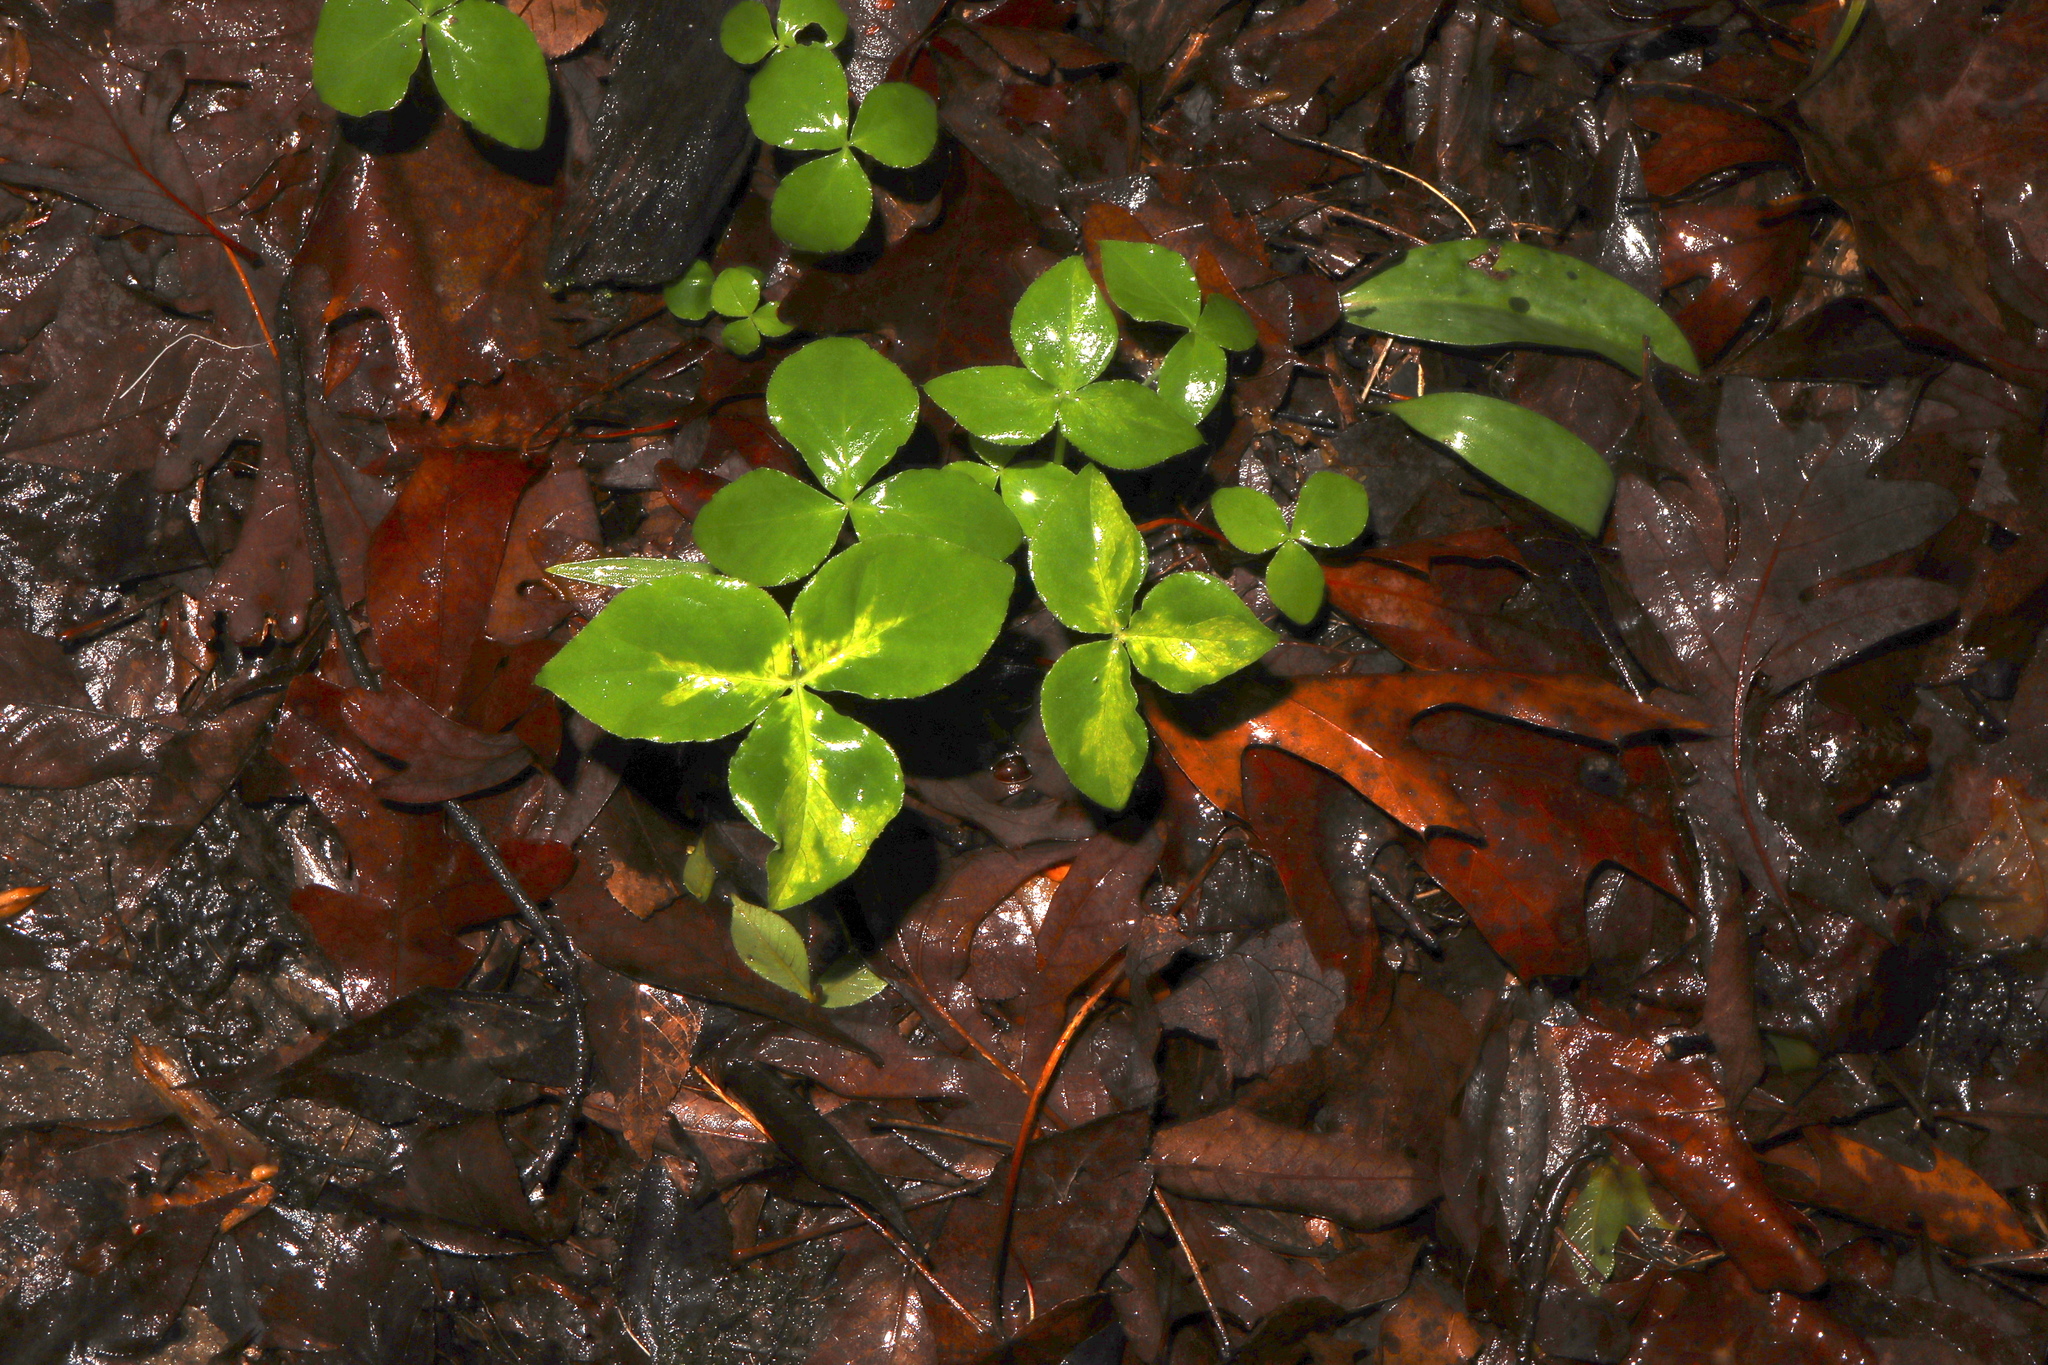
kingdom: Fungi
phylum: Basidiomycota
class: Pucciniomycetes
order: Pucciniales
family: Pucciniaceae
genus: Uromyces
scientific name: Uromyces ari-triphylli
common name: Jack-in-the-pulpit rust
